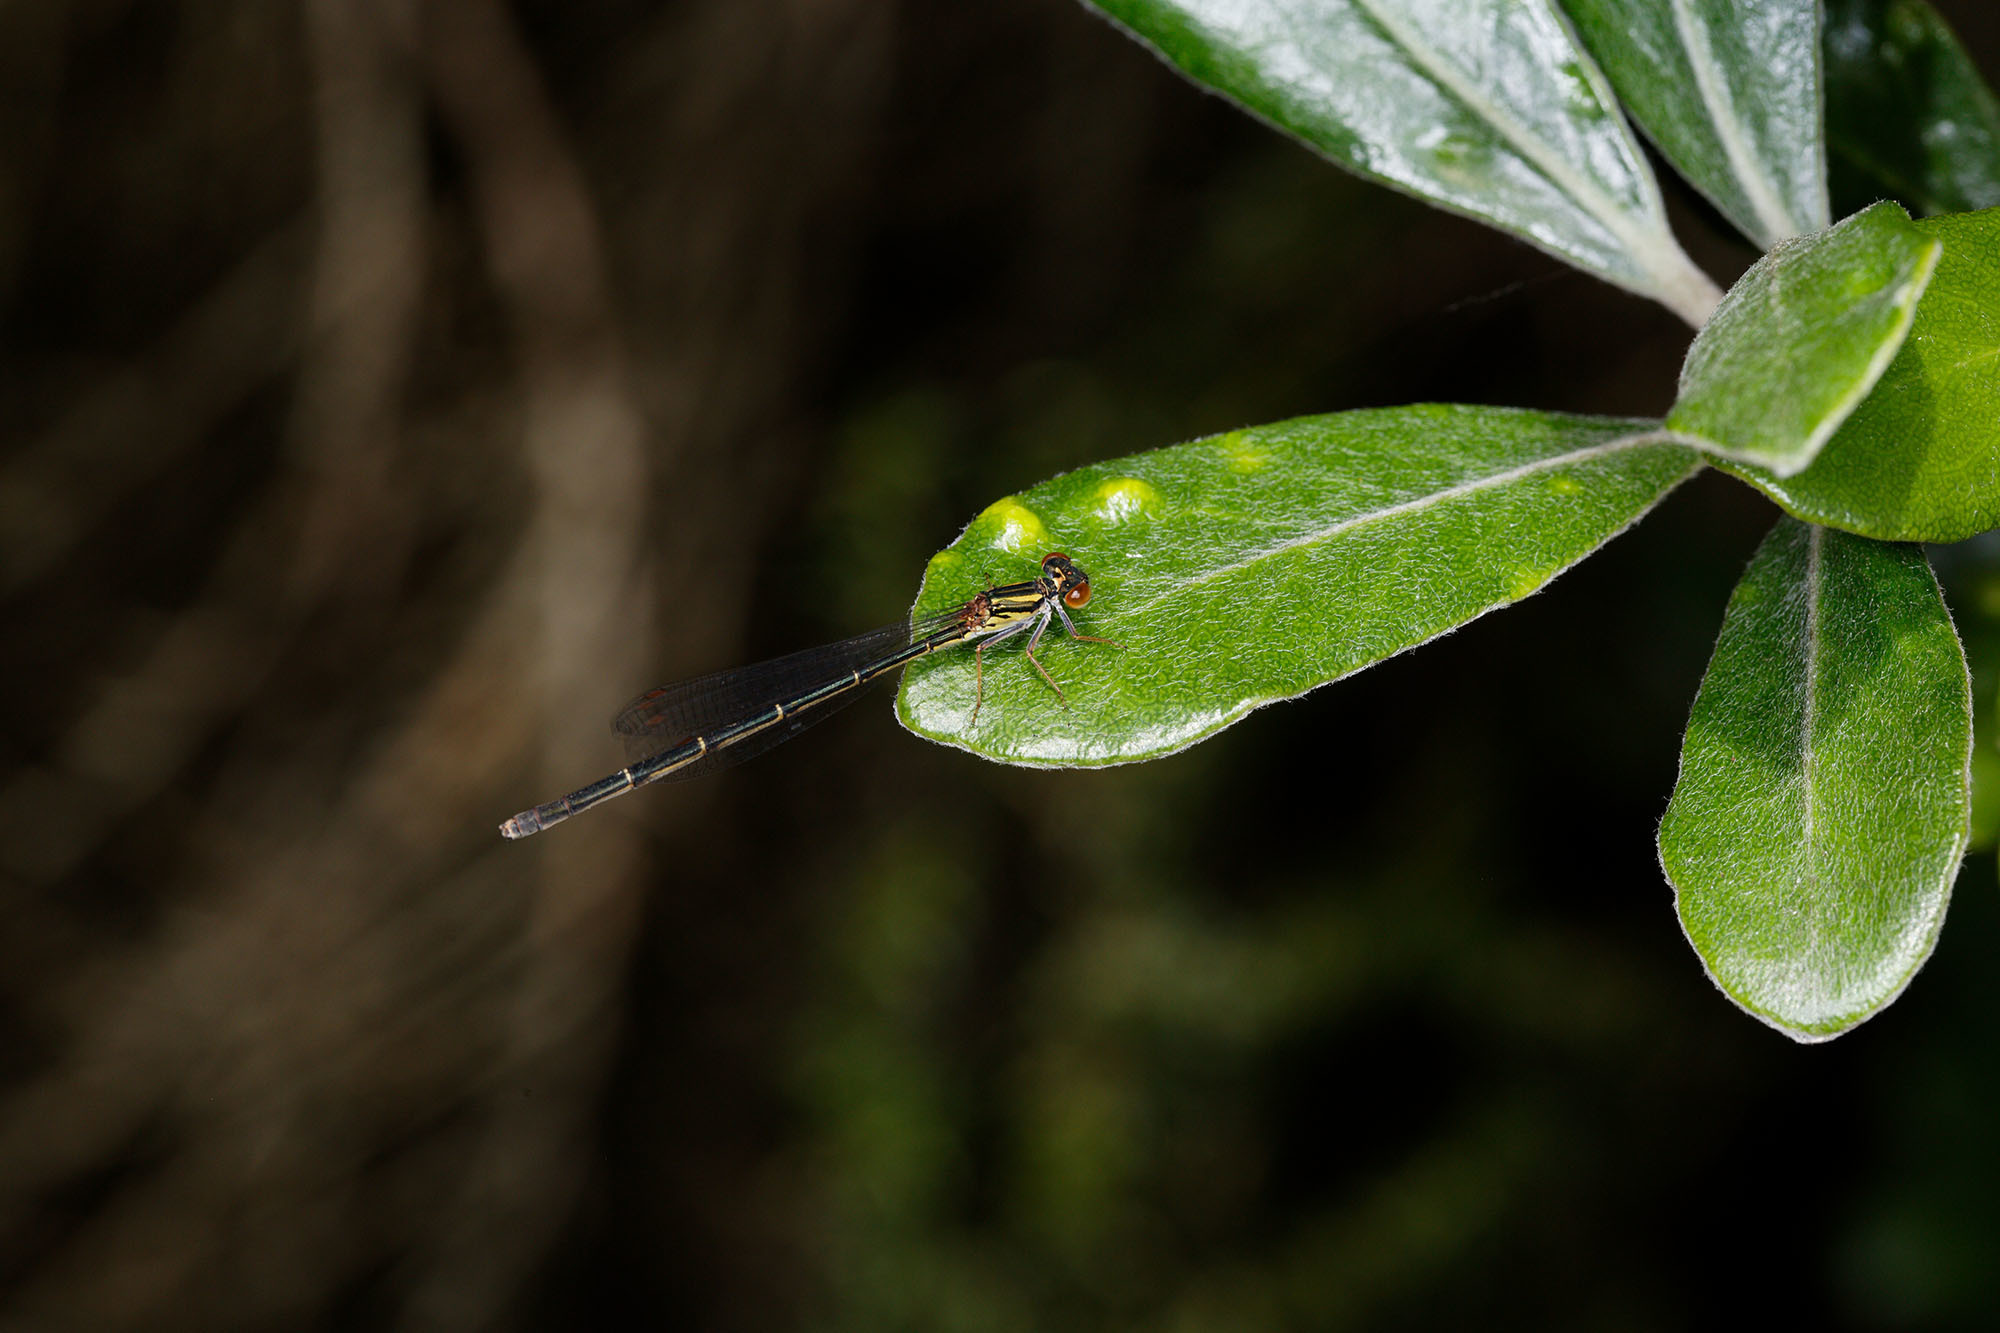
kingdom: Animalia
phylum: Arthropoda
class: Insecta
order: Odonata
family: Coenagrionidae
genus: Xanthocnemis
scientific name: Xanthocnemis zealandica
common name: Common redcoat damselfly
